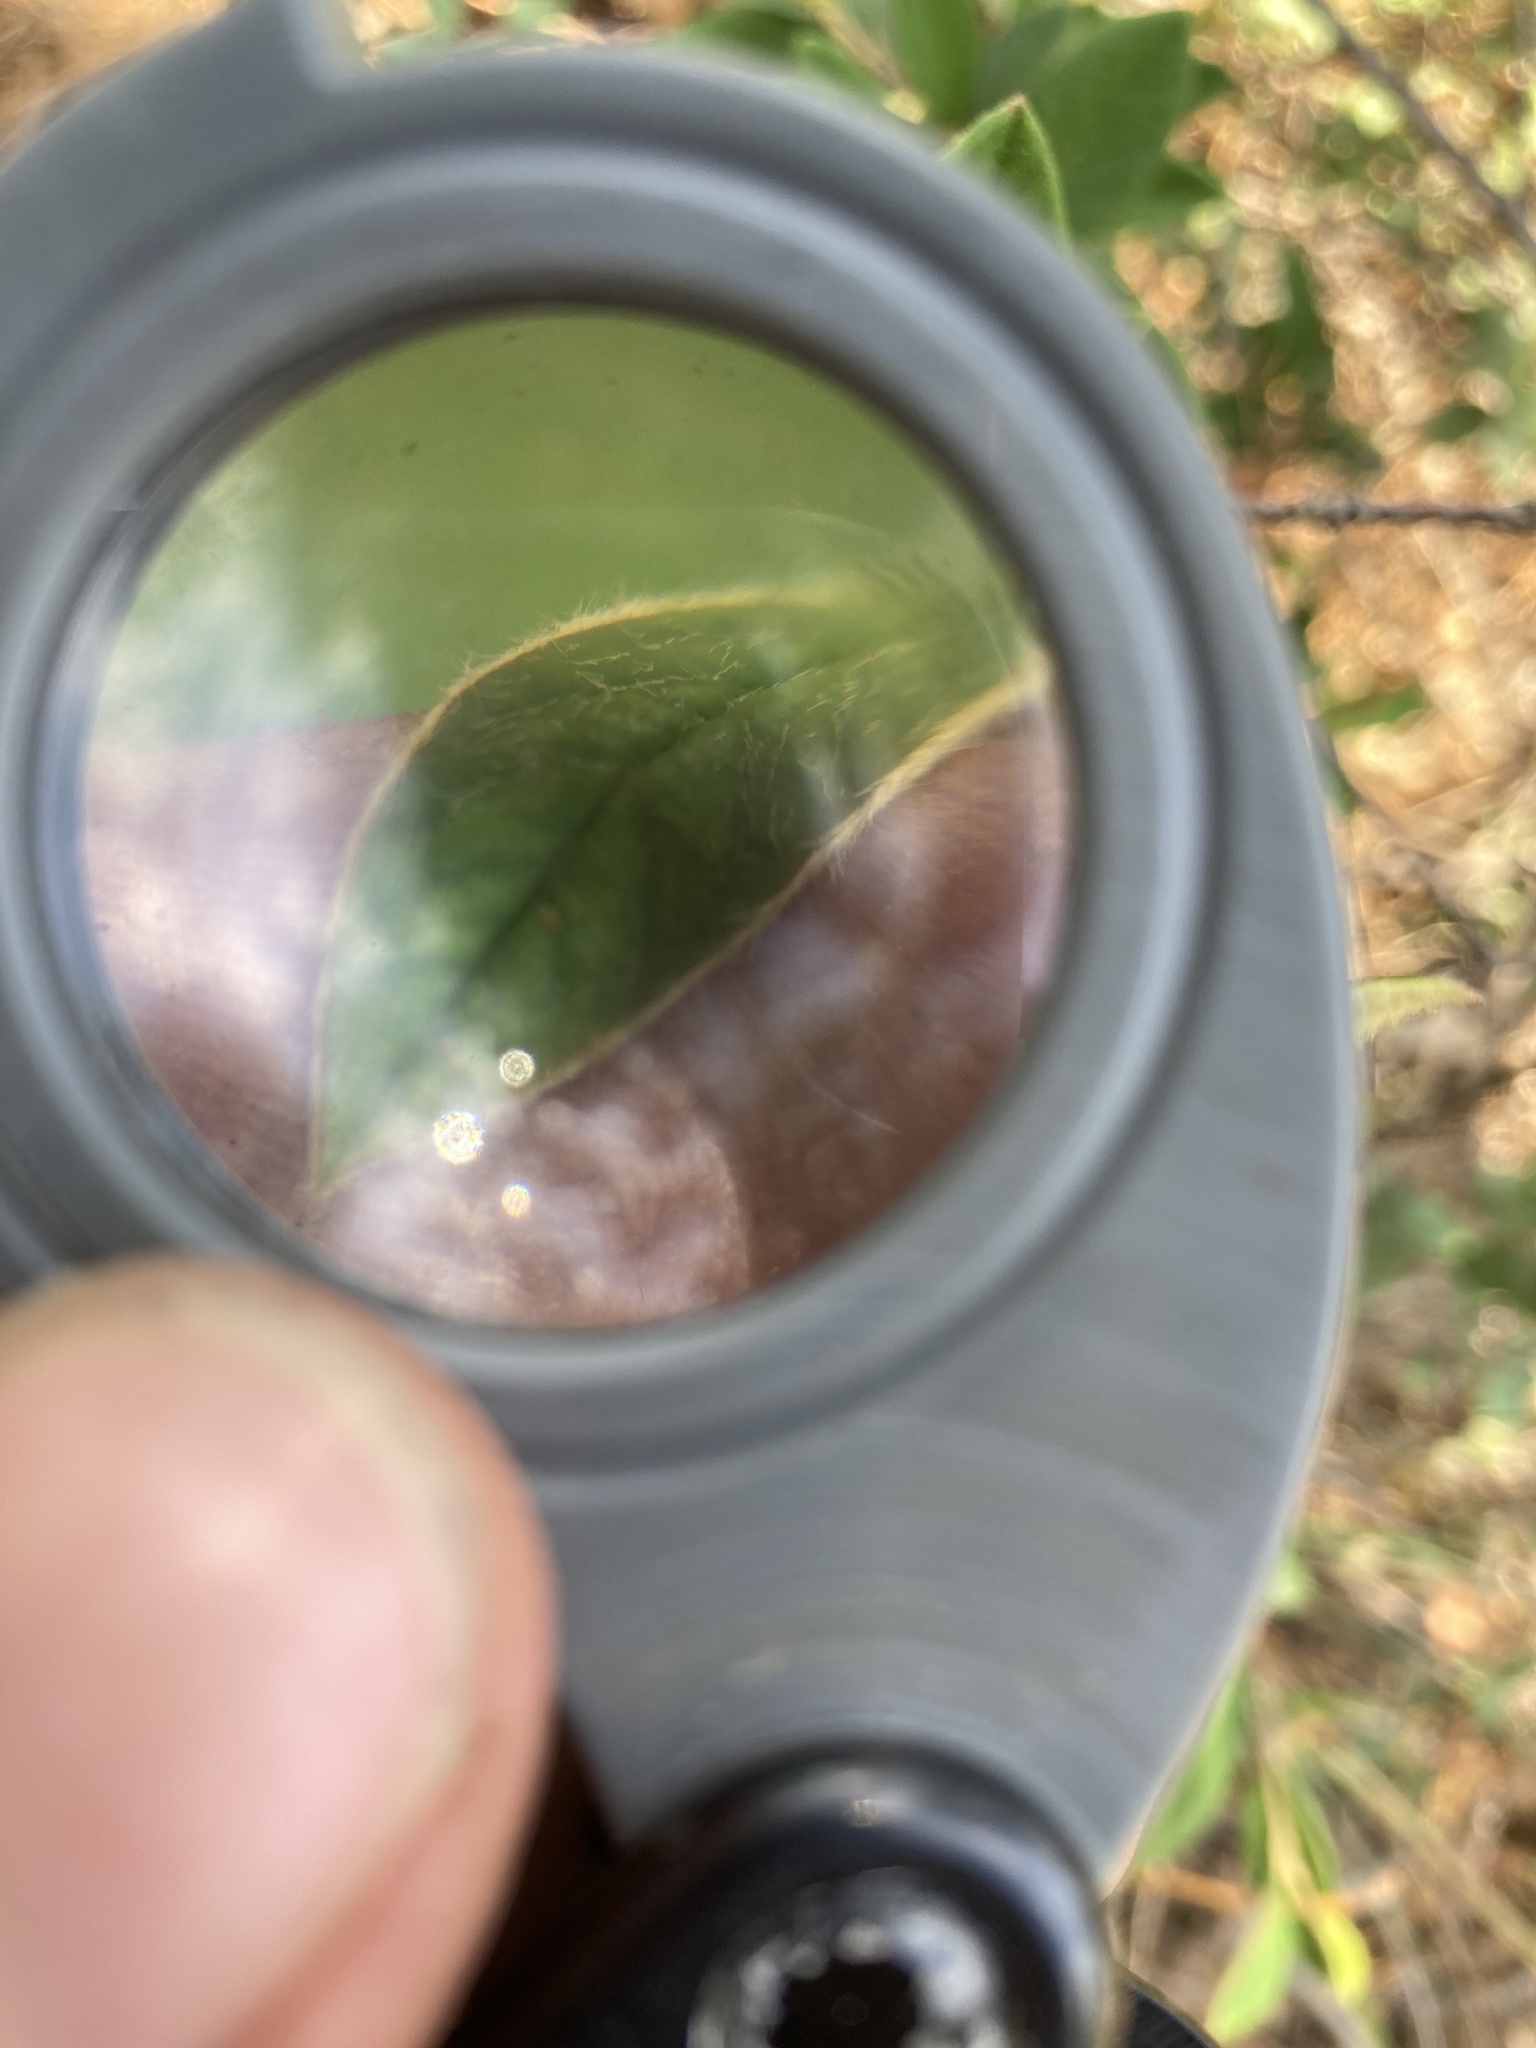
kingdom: Plantae
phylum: Tracheophyta
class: Magnoliopsida
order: Rosales
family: Rosaceae
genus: Cotoneaster
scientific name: Cotoneaster pannosus
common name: Silverleaf cotoneaster
